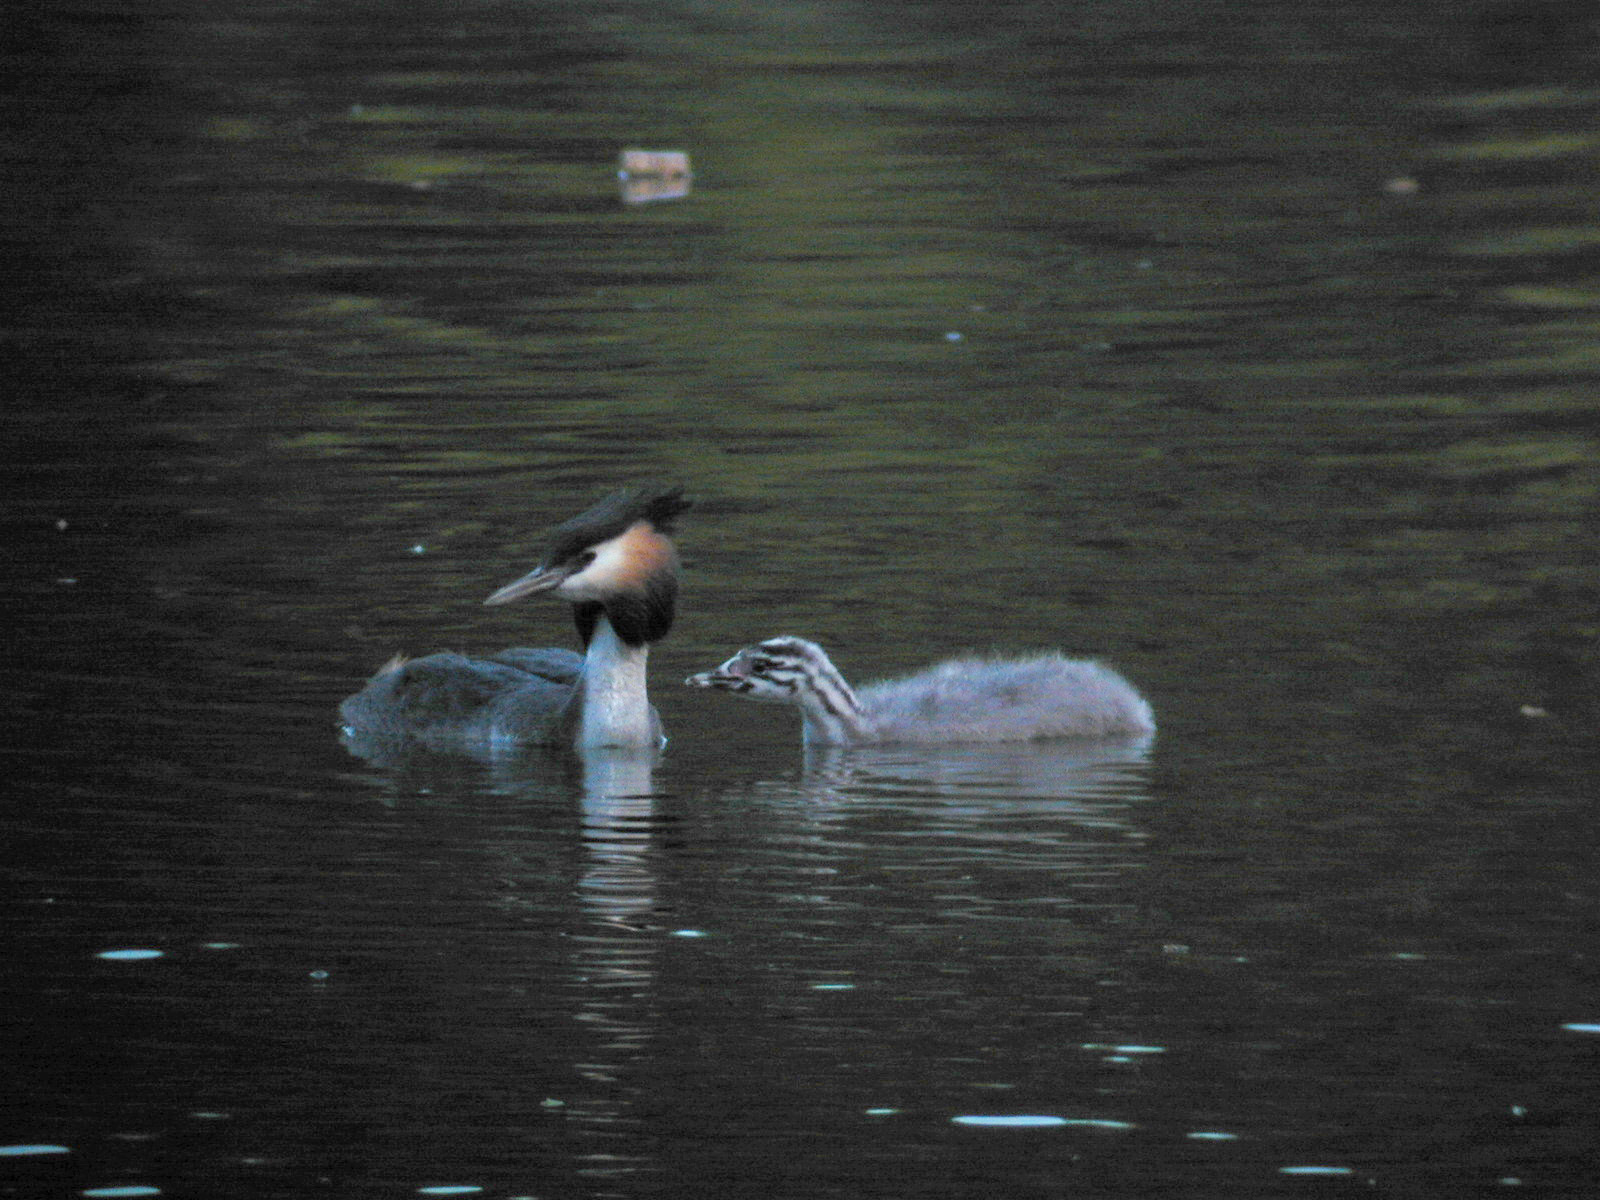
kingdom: Animalia
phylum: Chordata
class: Aves
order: Podicipediformes
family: Podicipedidae
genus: Podiceps
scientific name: Podiceps cristatus
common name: Great crested grebe
